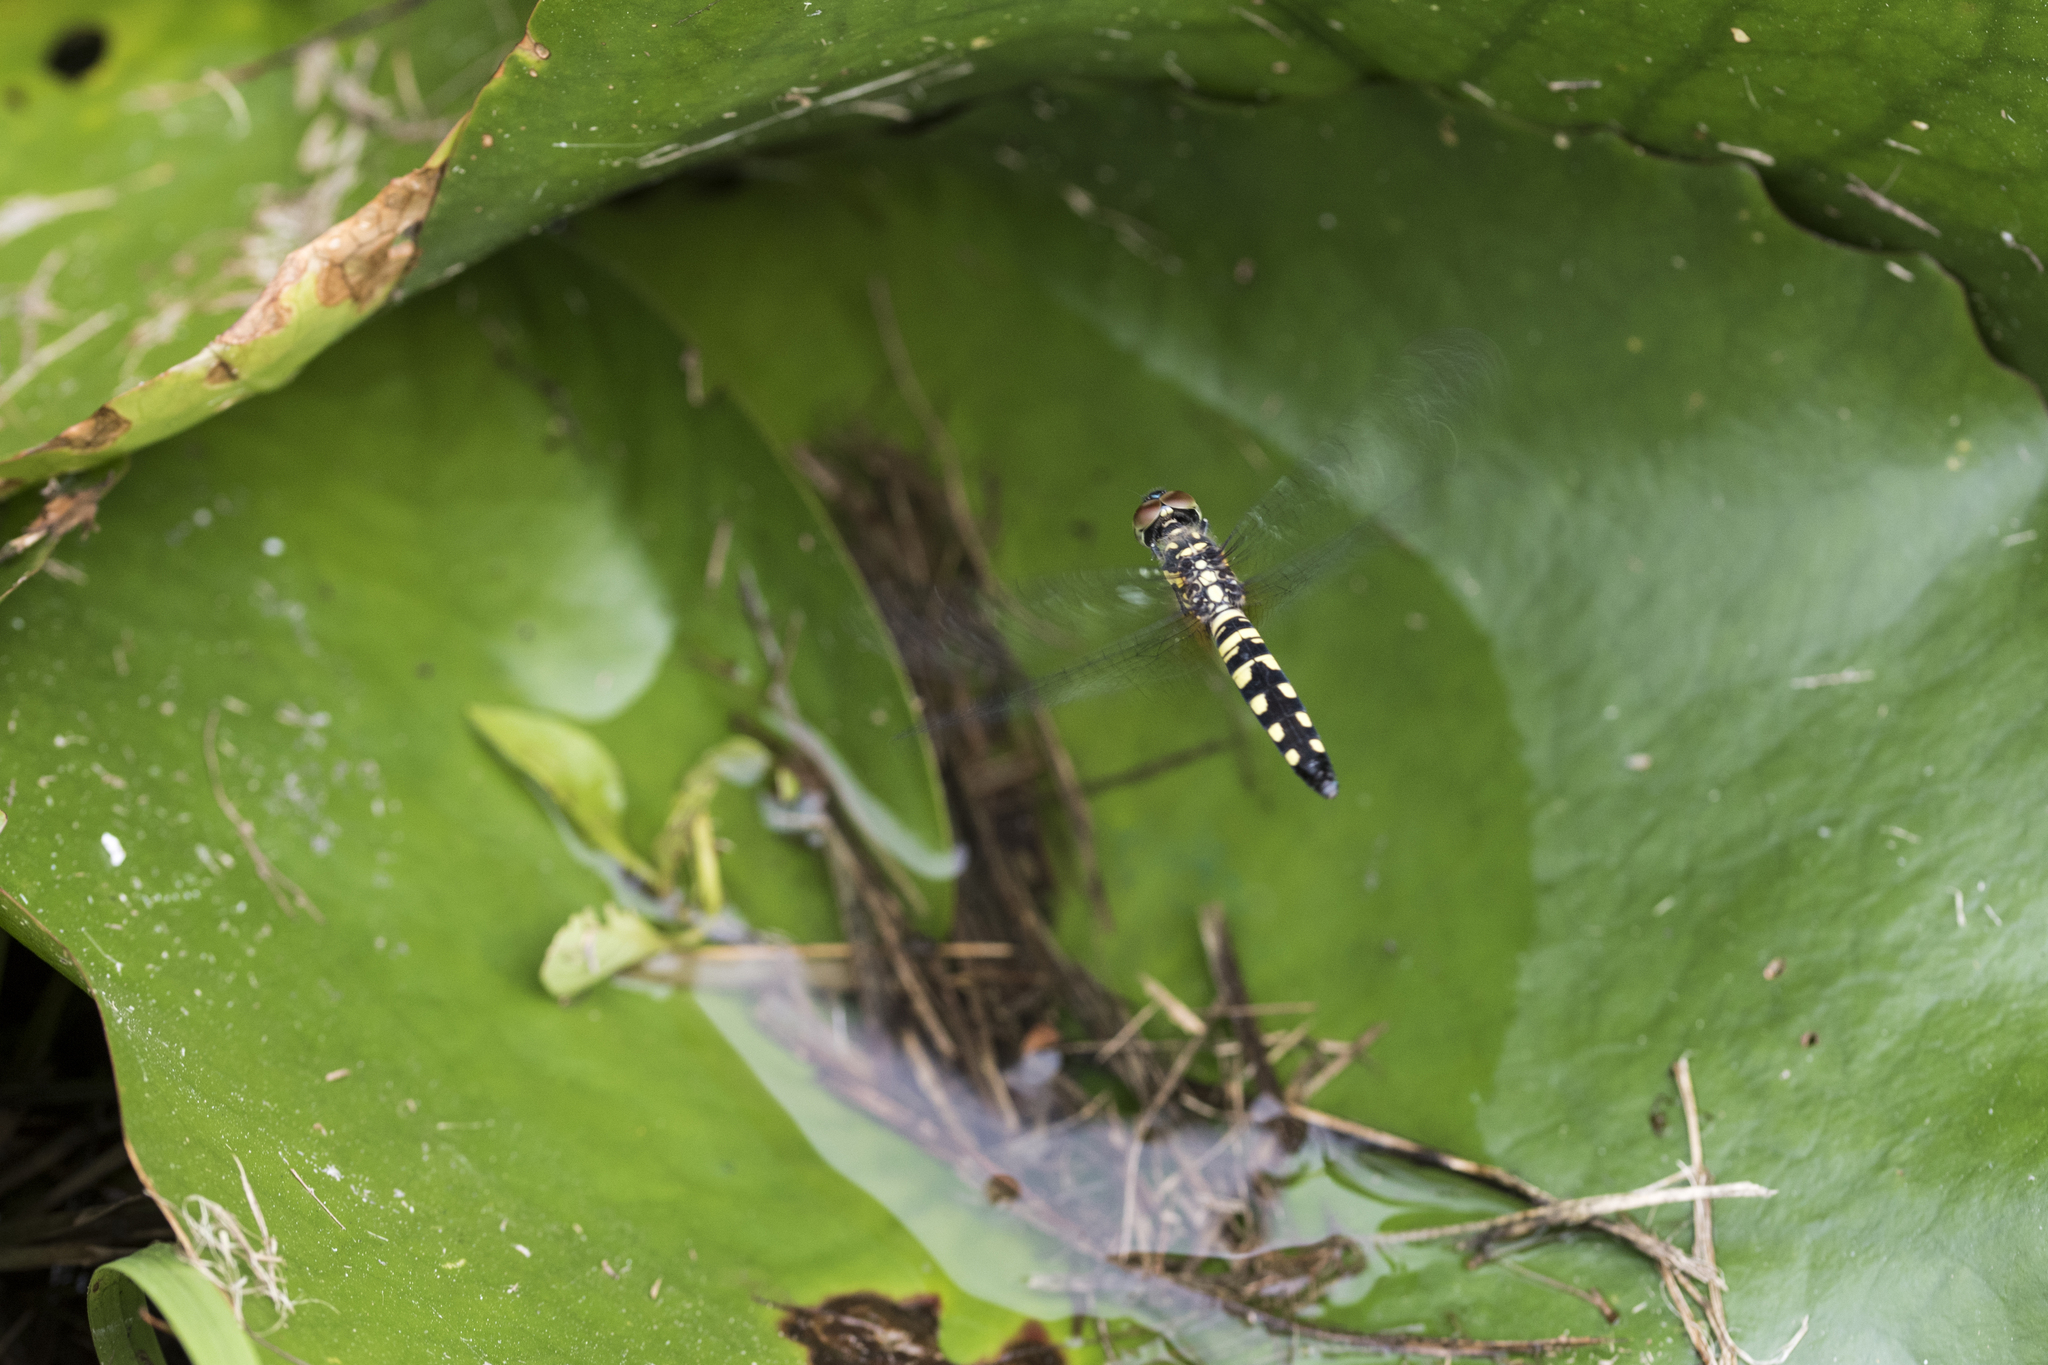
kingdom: Animalia
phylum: Arthropoda
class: Insecta
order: Odonata
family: Libellulidae
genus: Brachydiplax
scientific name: Brachydiplax chalybea
